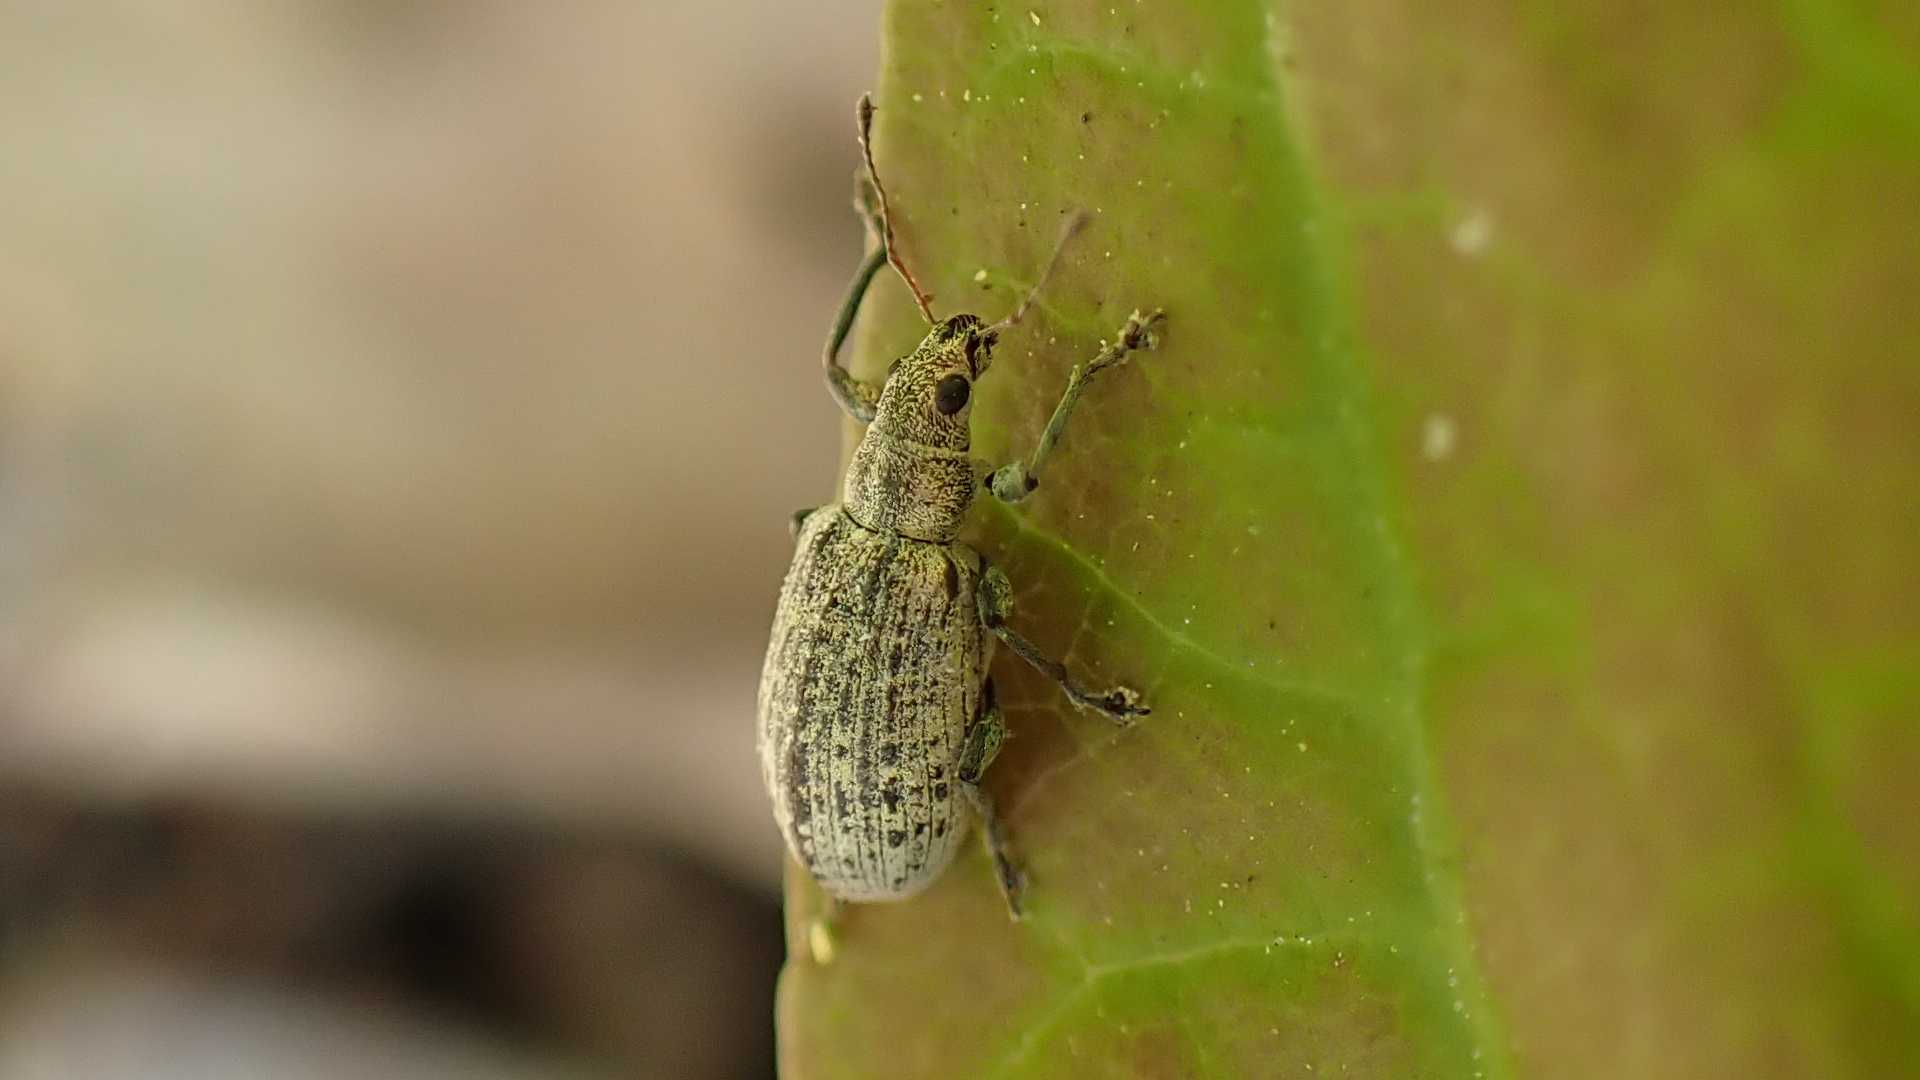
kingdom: Animalia
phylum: Arthropoda
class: Insecta
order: Coleoptera
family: Curculionidae
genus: Polydrusus
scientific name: Polydrusus cervinus
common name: Weevil
